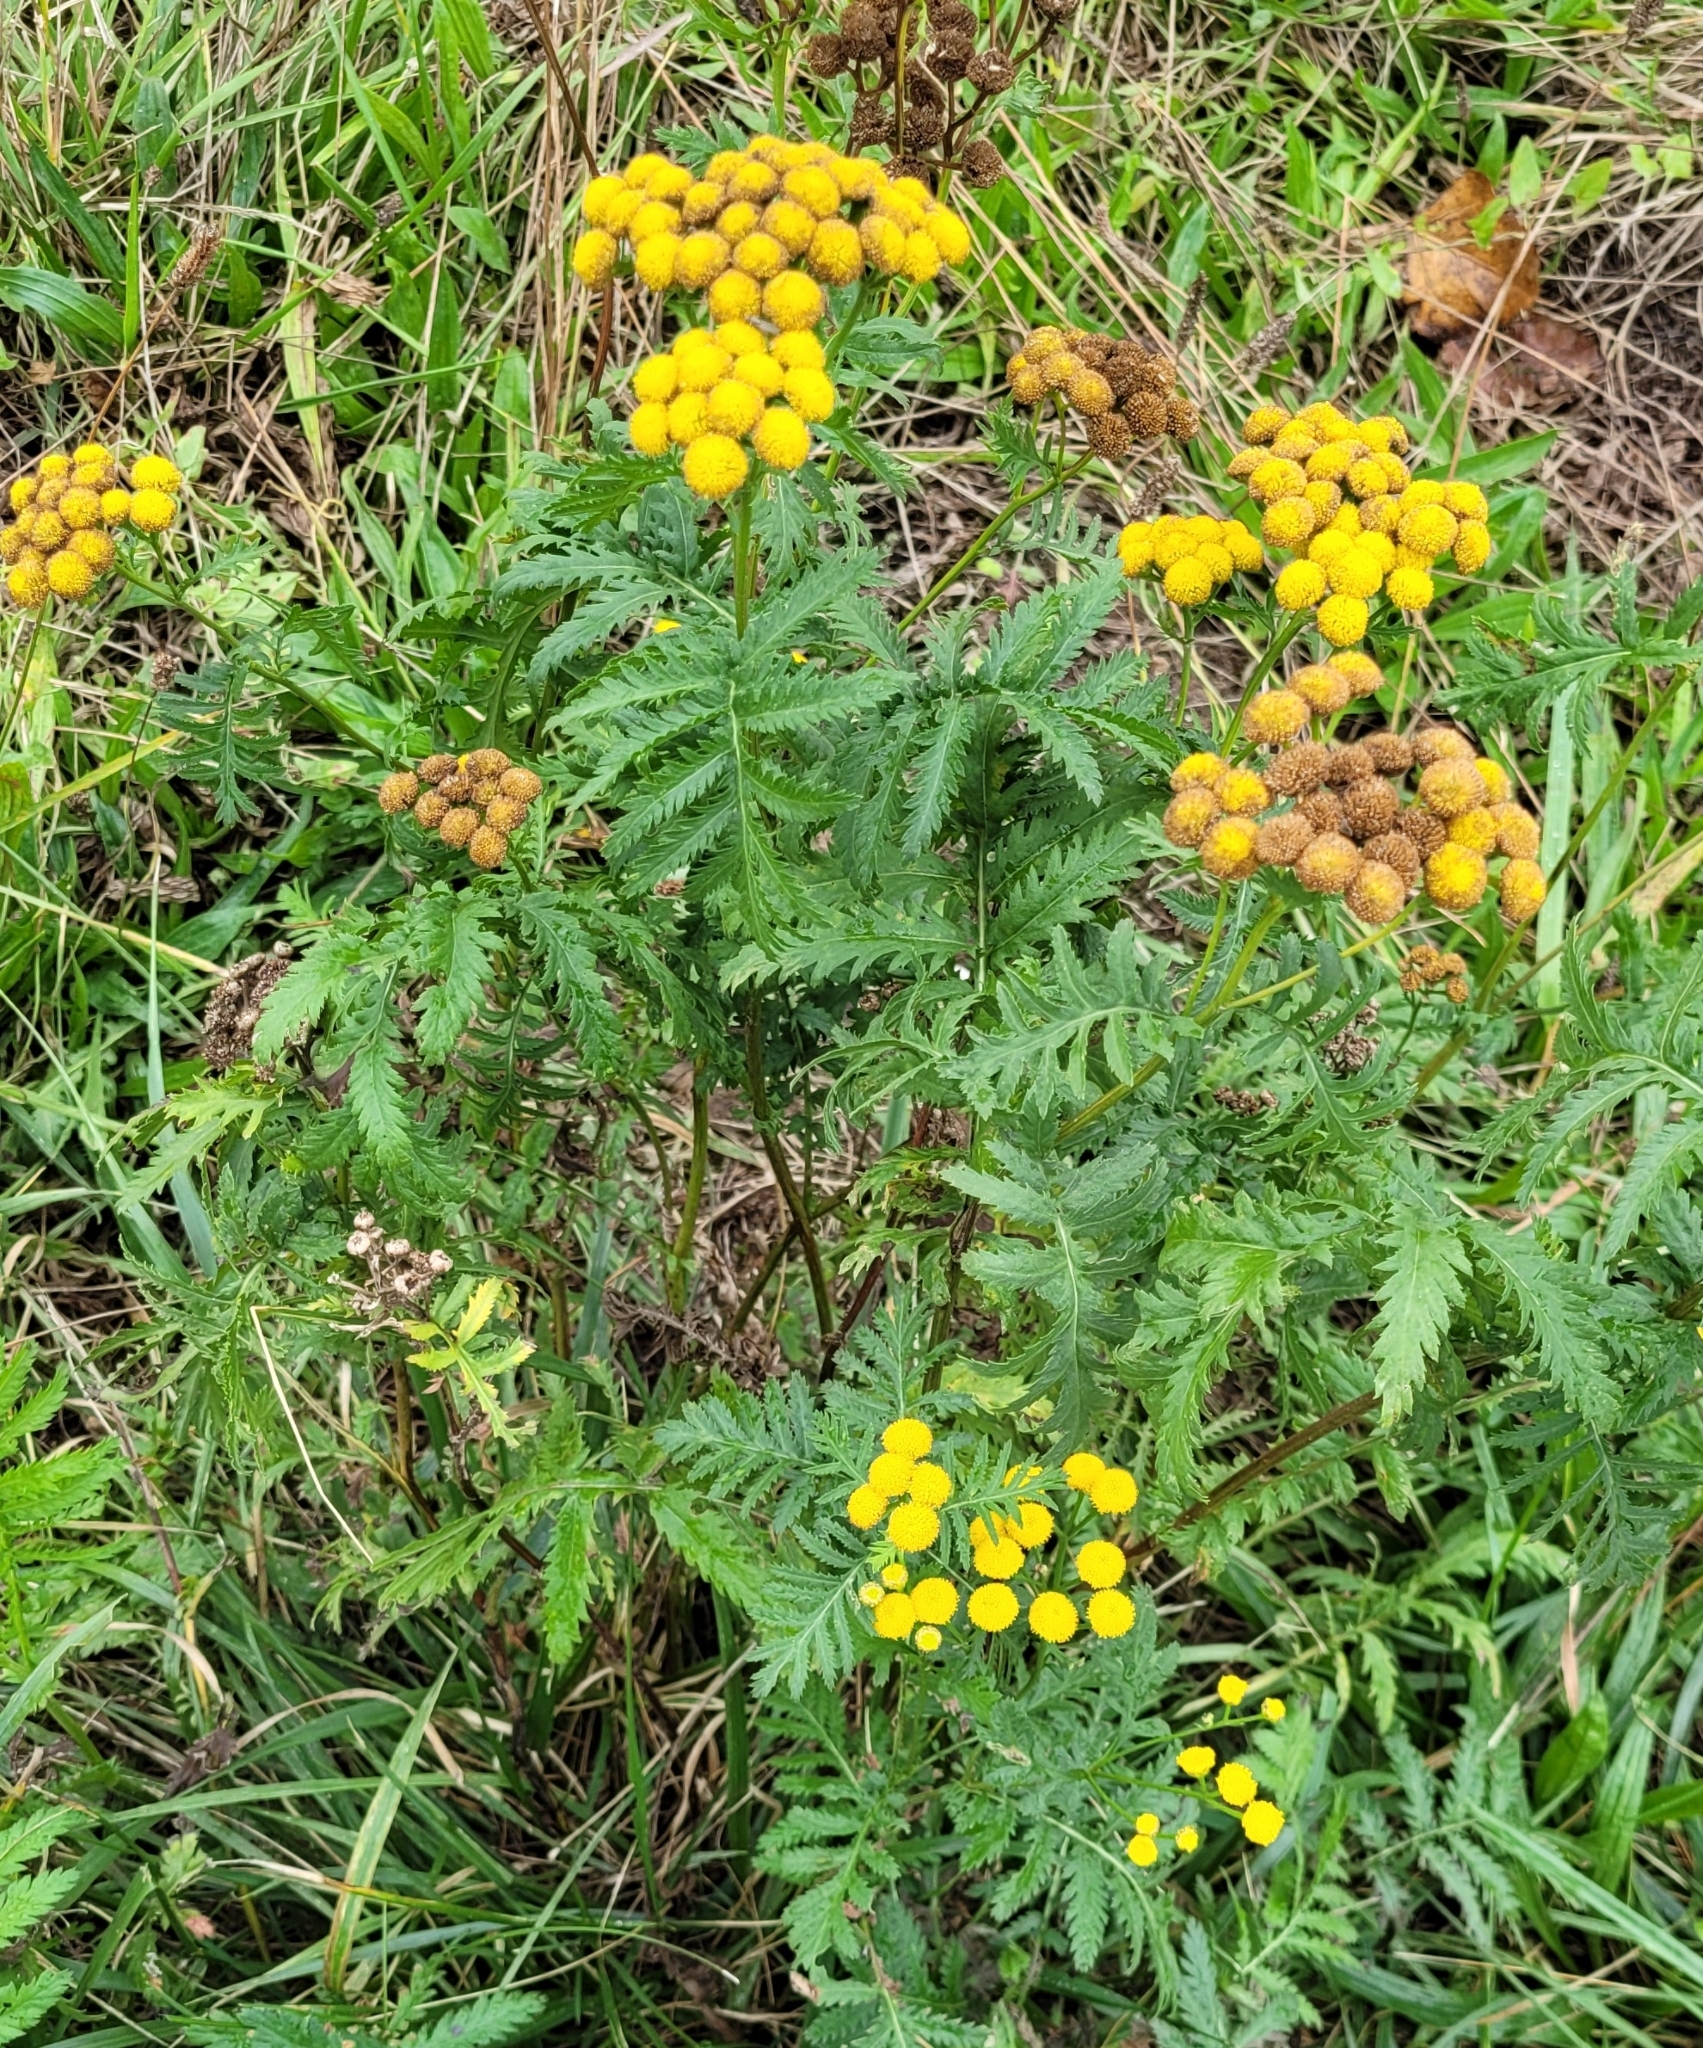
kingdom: Plantae
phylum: Tracheophyta
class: Magnoliopsida
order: Asterales
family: Asteraceae
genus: Tanacetum
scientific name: Tanacetum vulgare
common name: Common tansy
